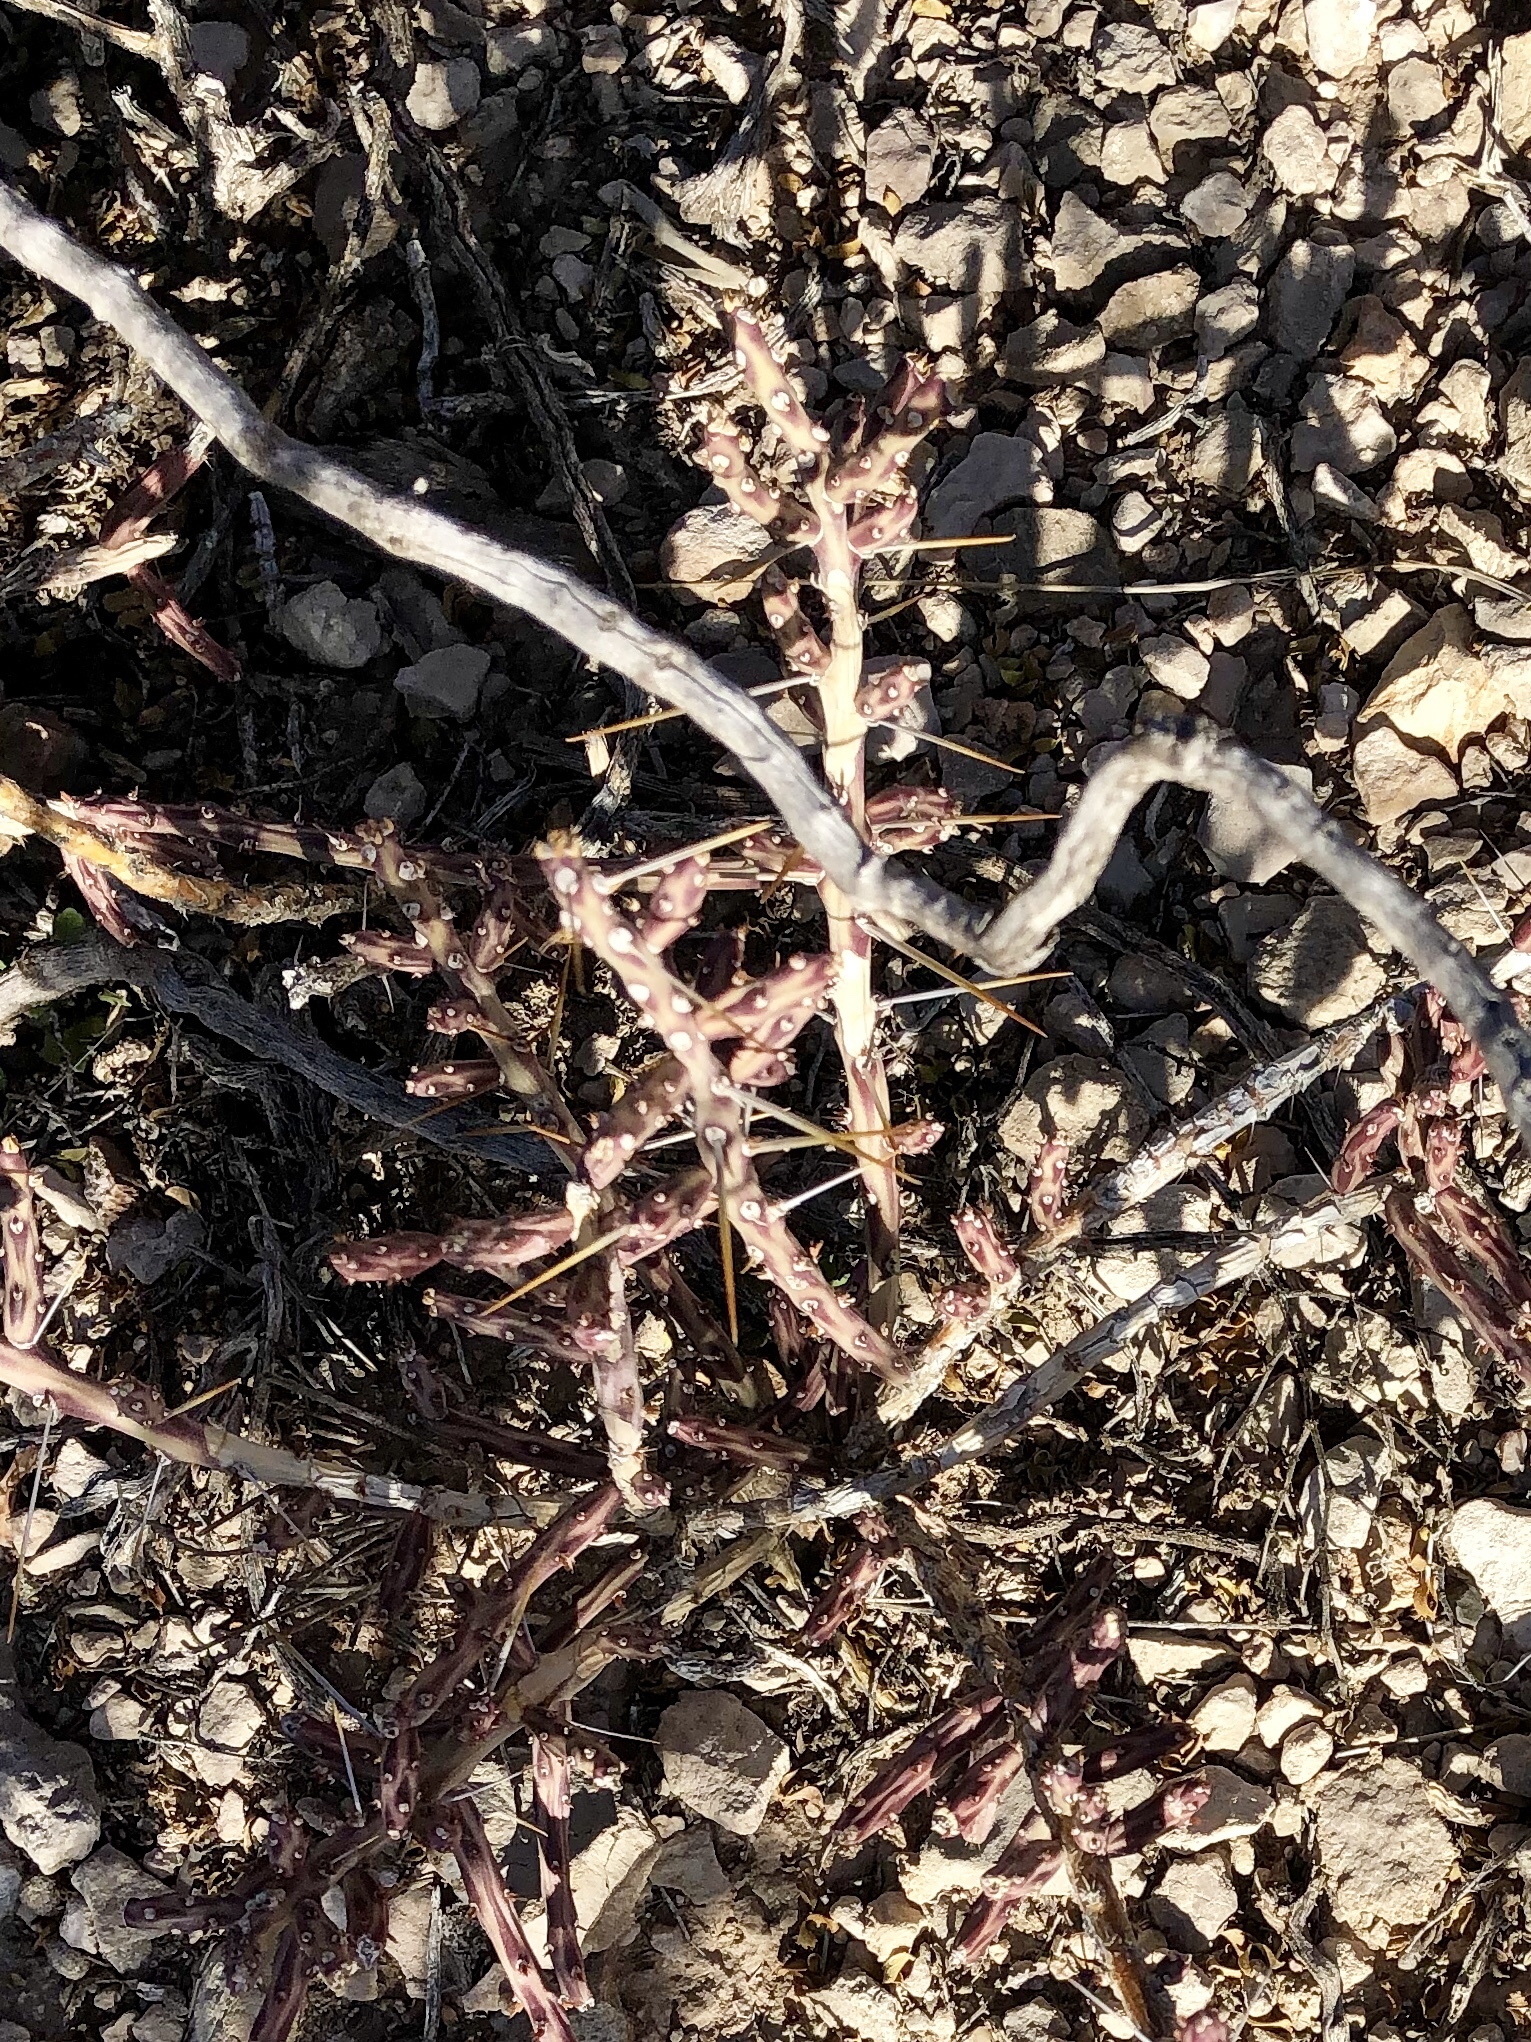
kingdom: Plantae
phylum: Tracheophyta
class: Magnoliopsida
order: Caryophyllales
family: Cactaceae
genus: Cylindropuntia
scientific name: Cylindropuntia leptocaulis
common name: Christmas cactus
